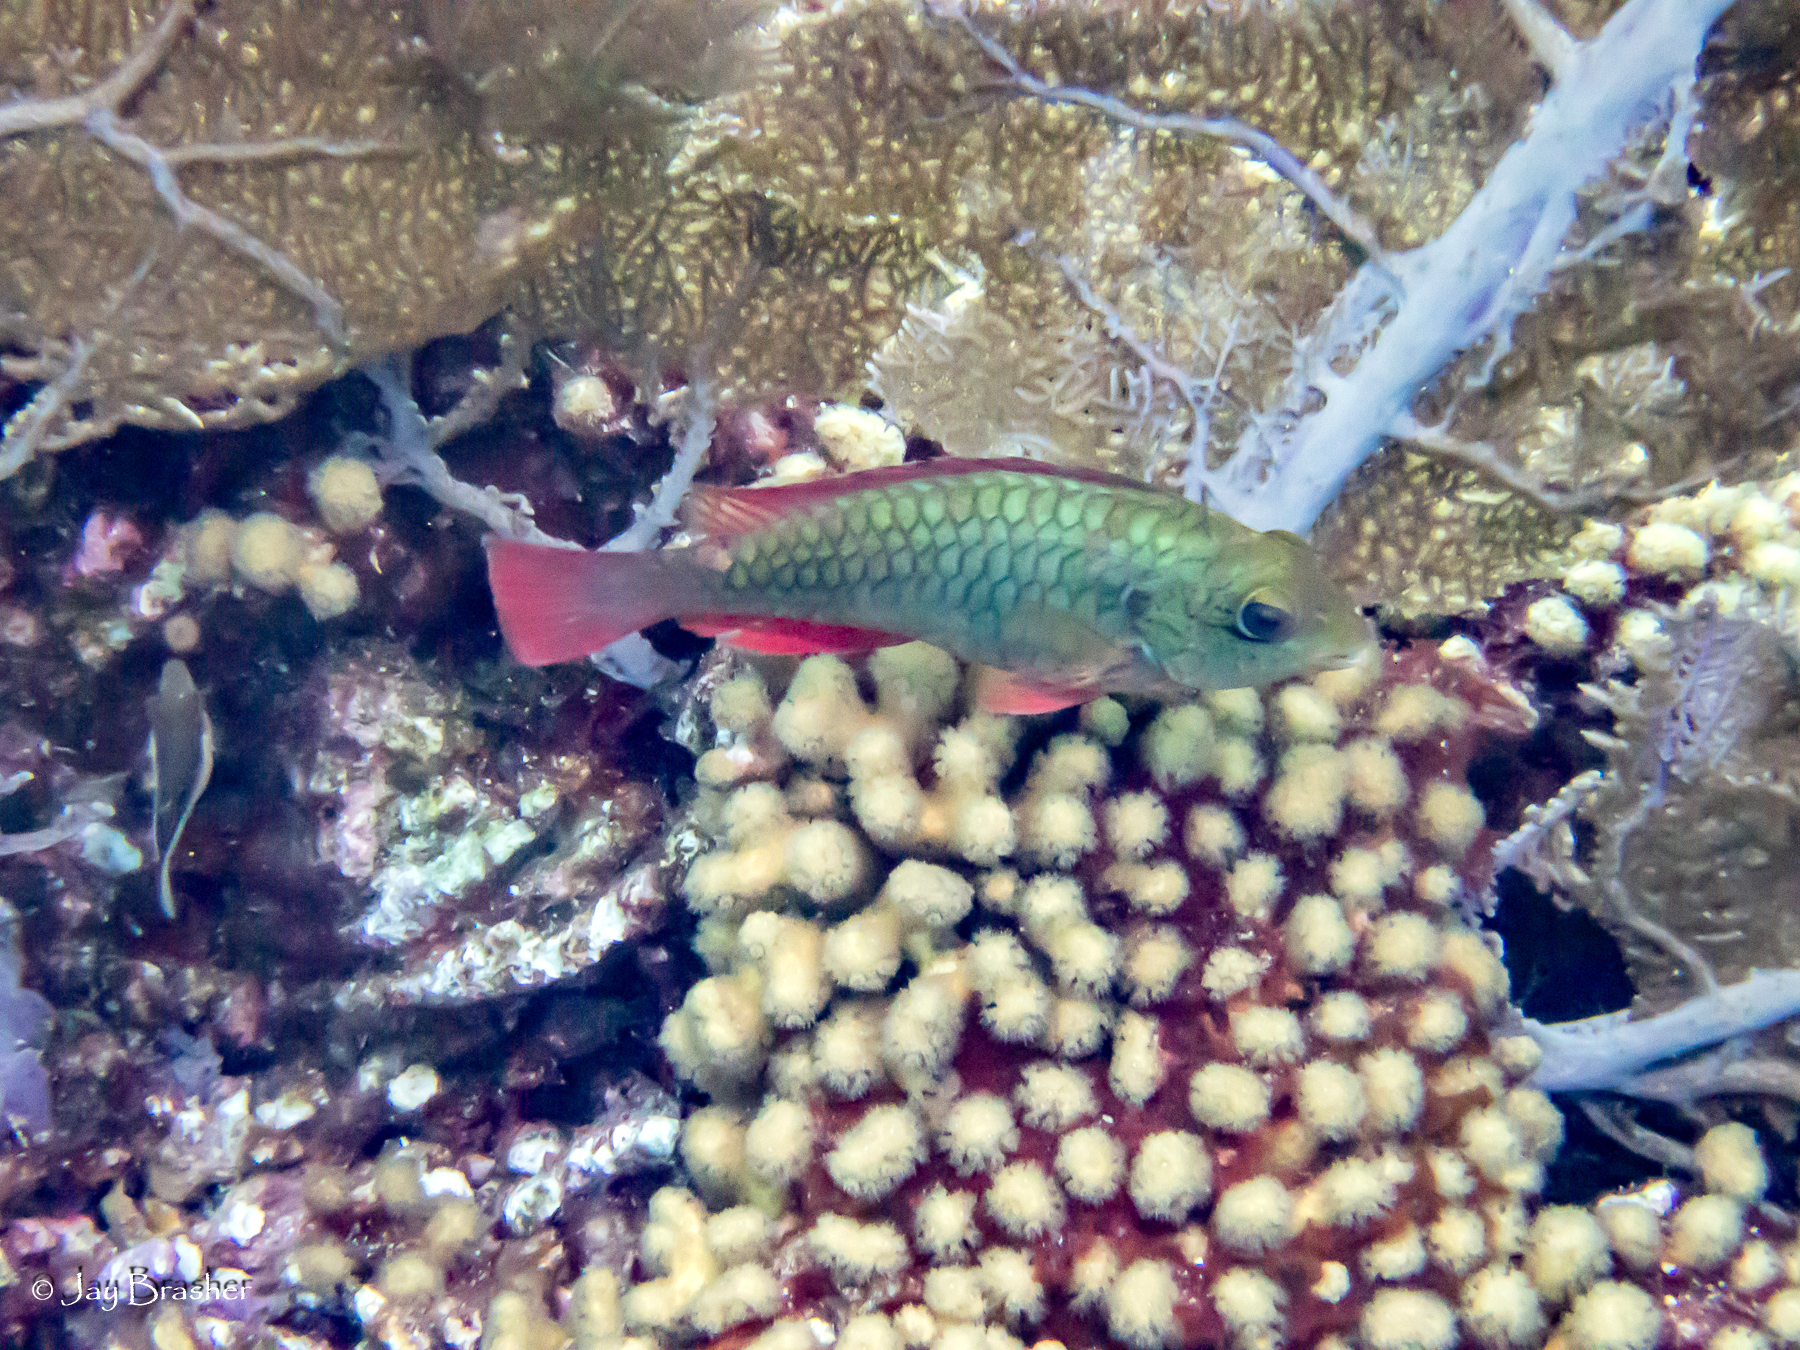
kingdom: Animalia
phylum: Cnidaria
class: Anthozoa
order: Scleractinia
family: Pocilloporidae
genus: Madracis
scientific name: Madracis auretenra
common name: Yellow pencil coral
